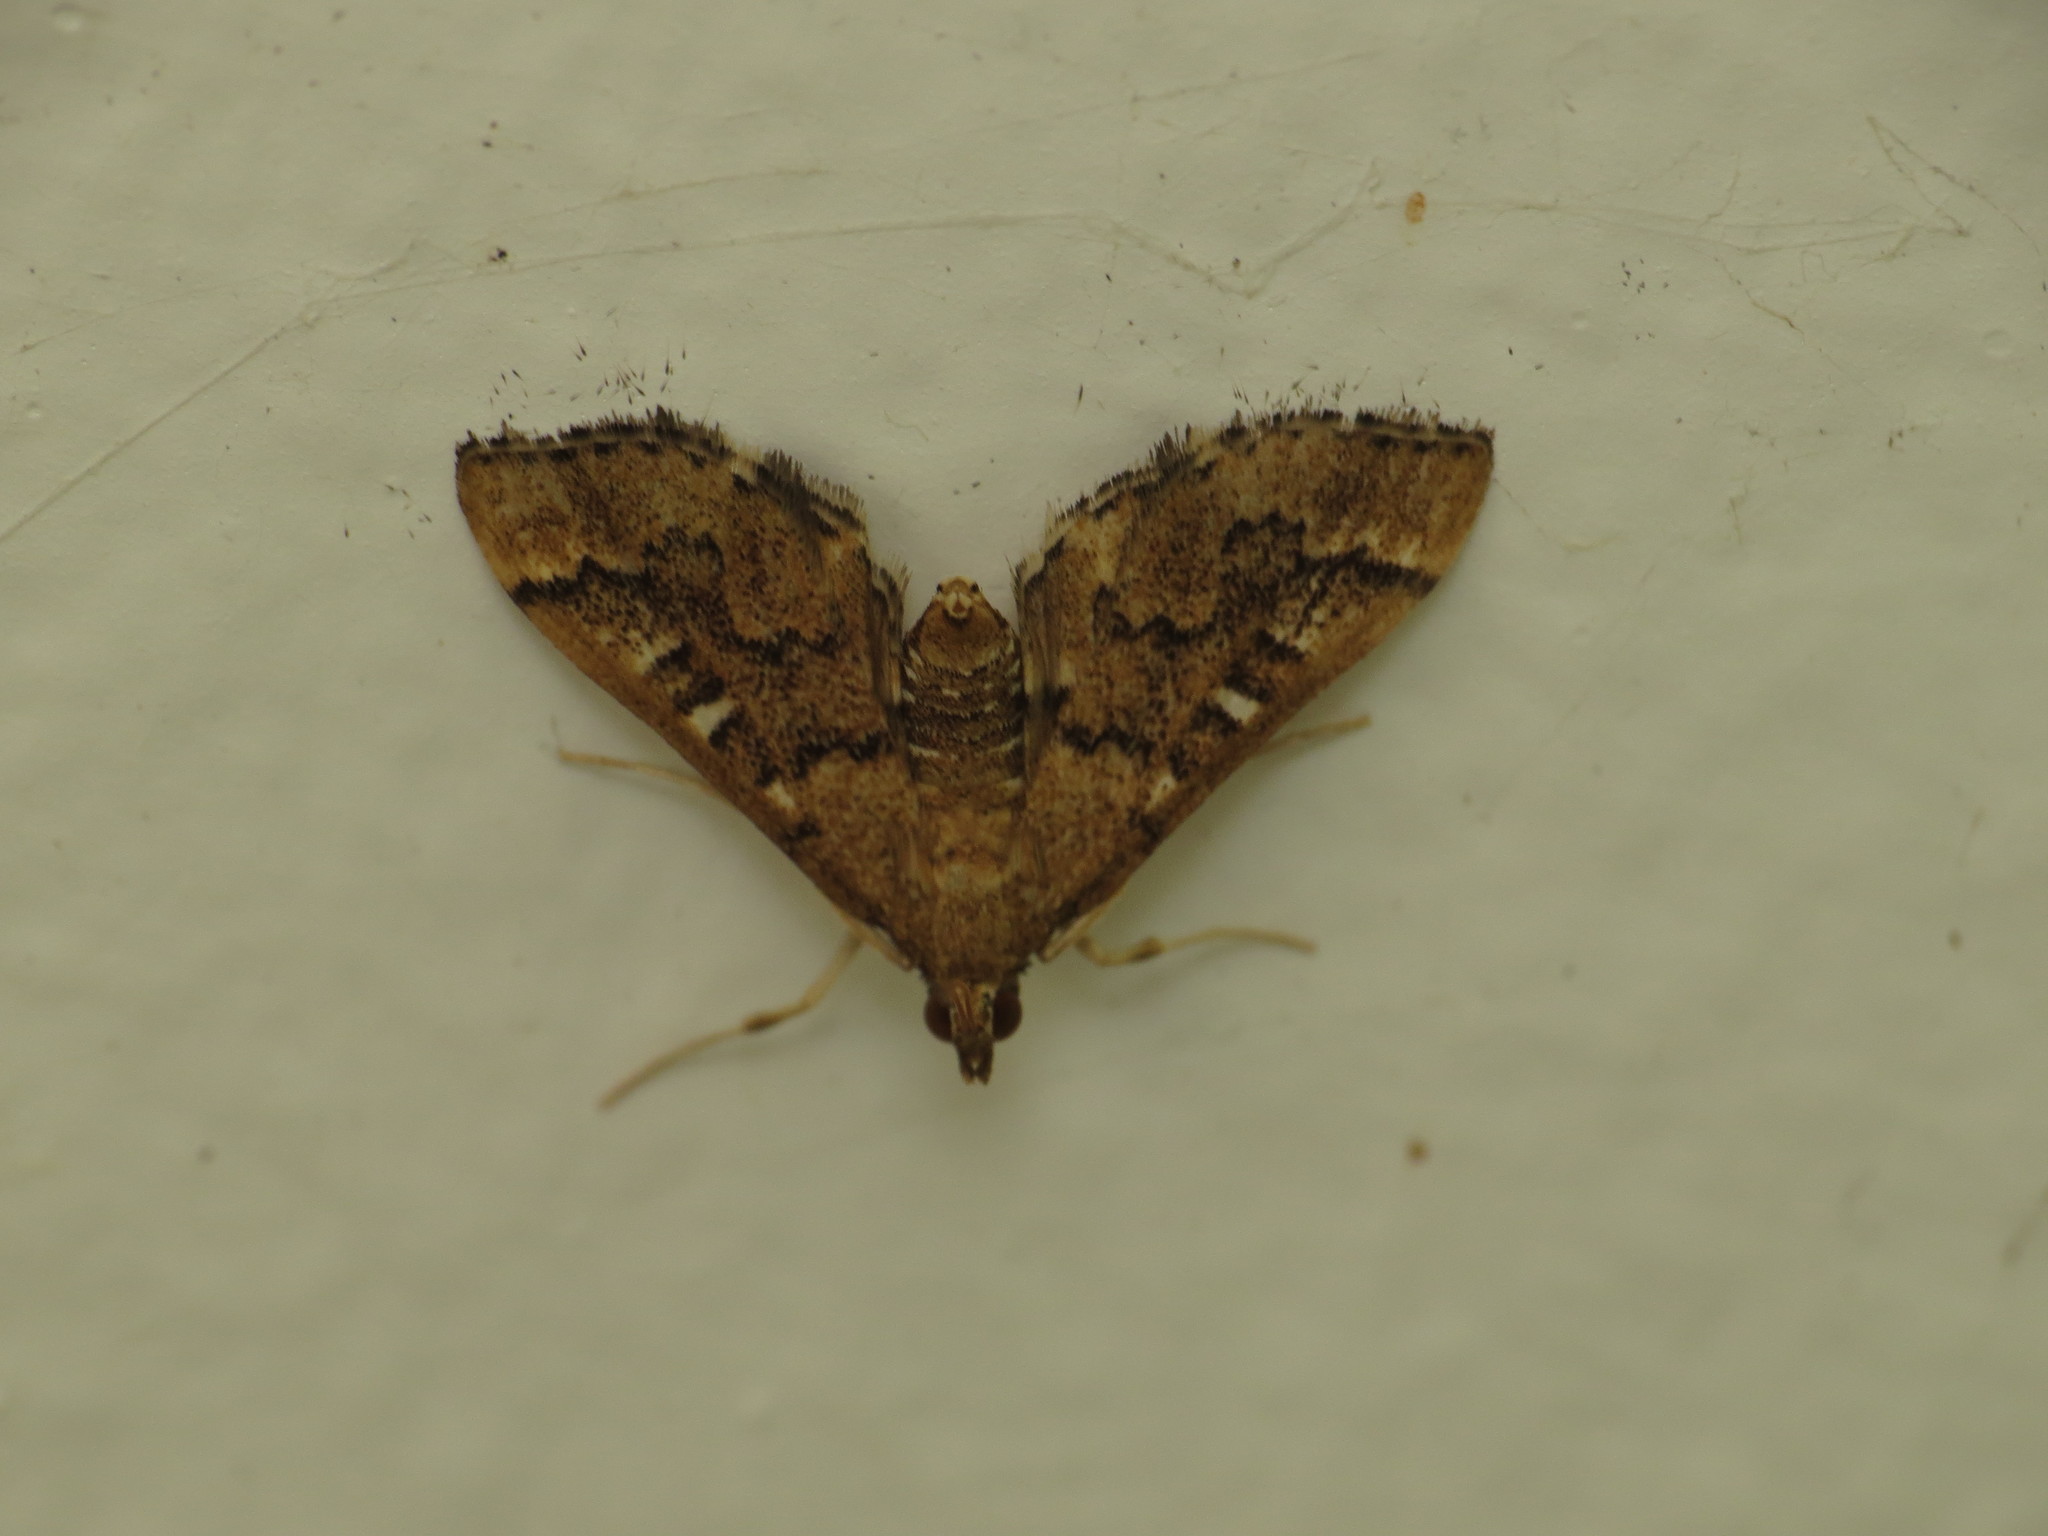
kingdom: Animalia
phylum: Arthropoda
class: Insecta
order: Lepidoptera
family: Crambidae
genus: Nacoleia
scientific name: Nacoleia rhoeoalis
